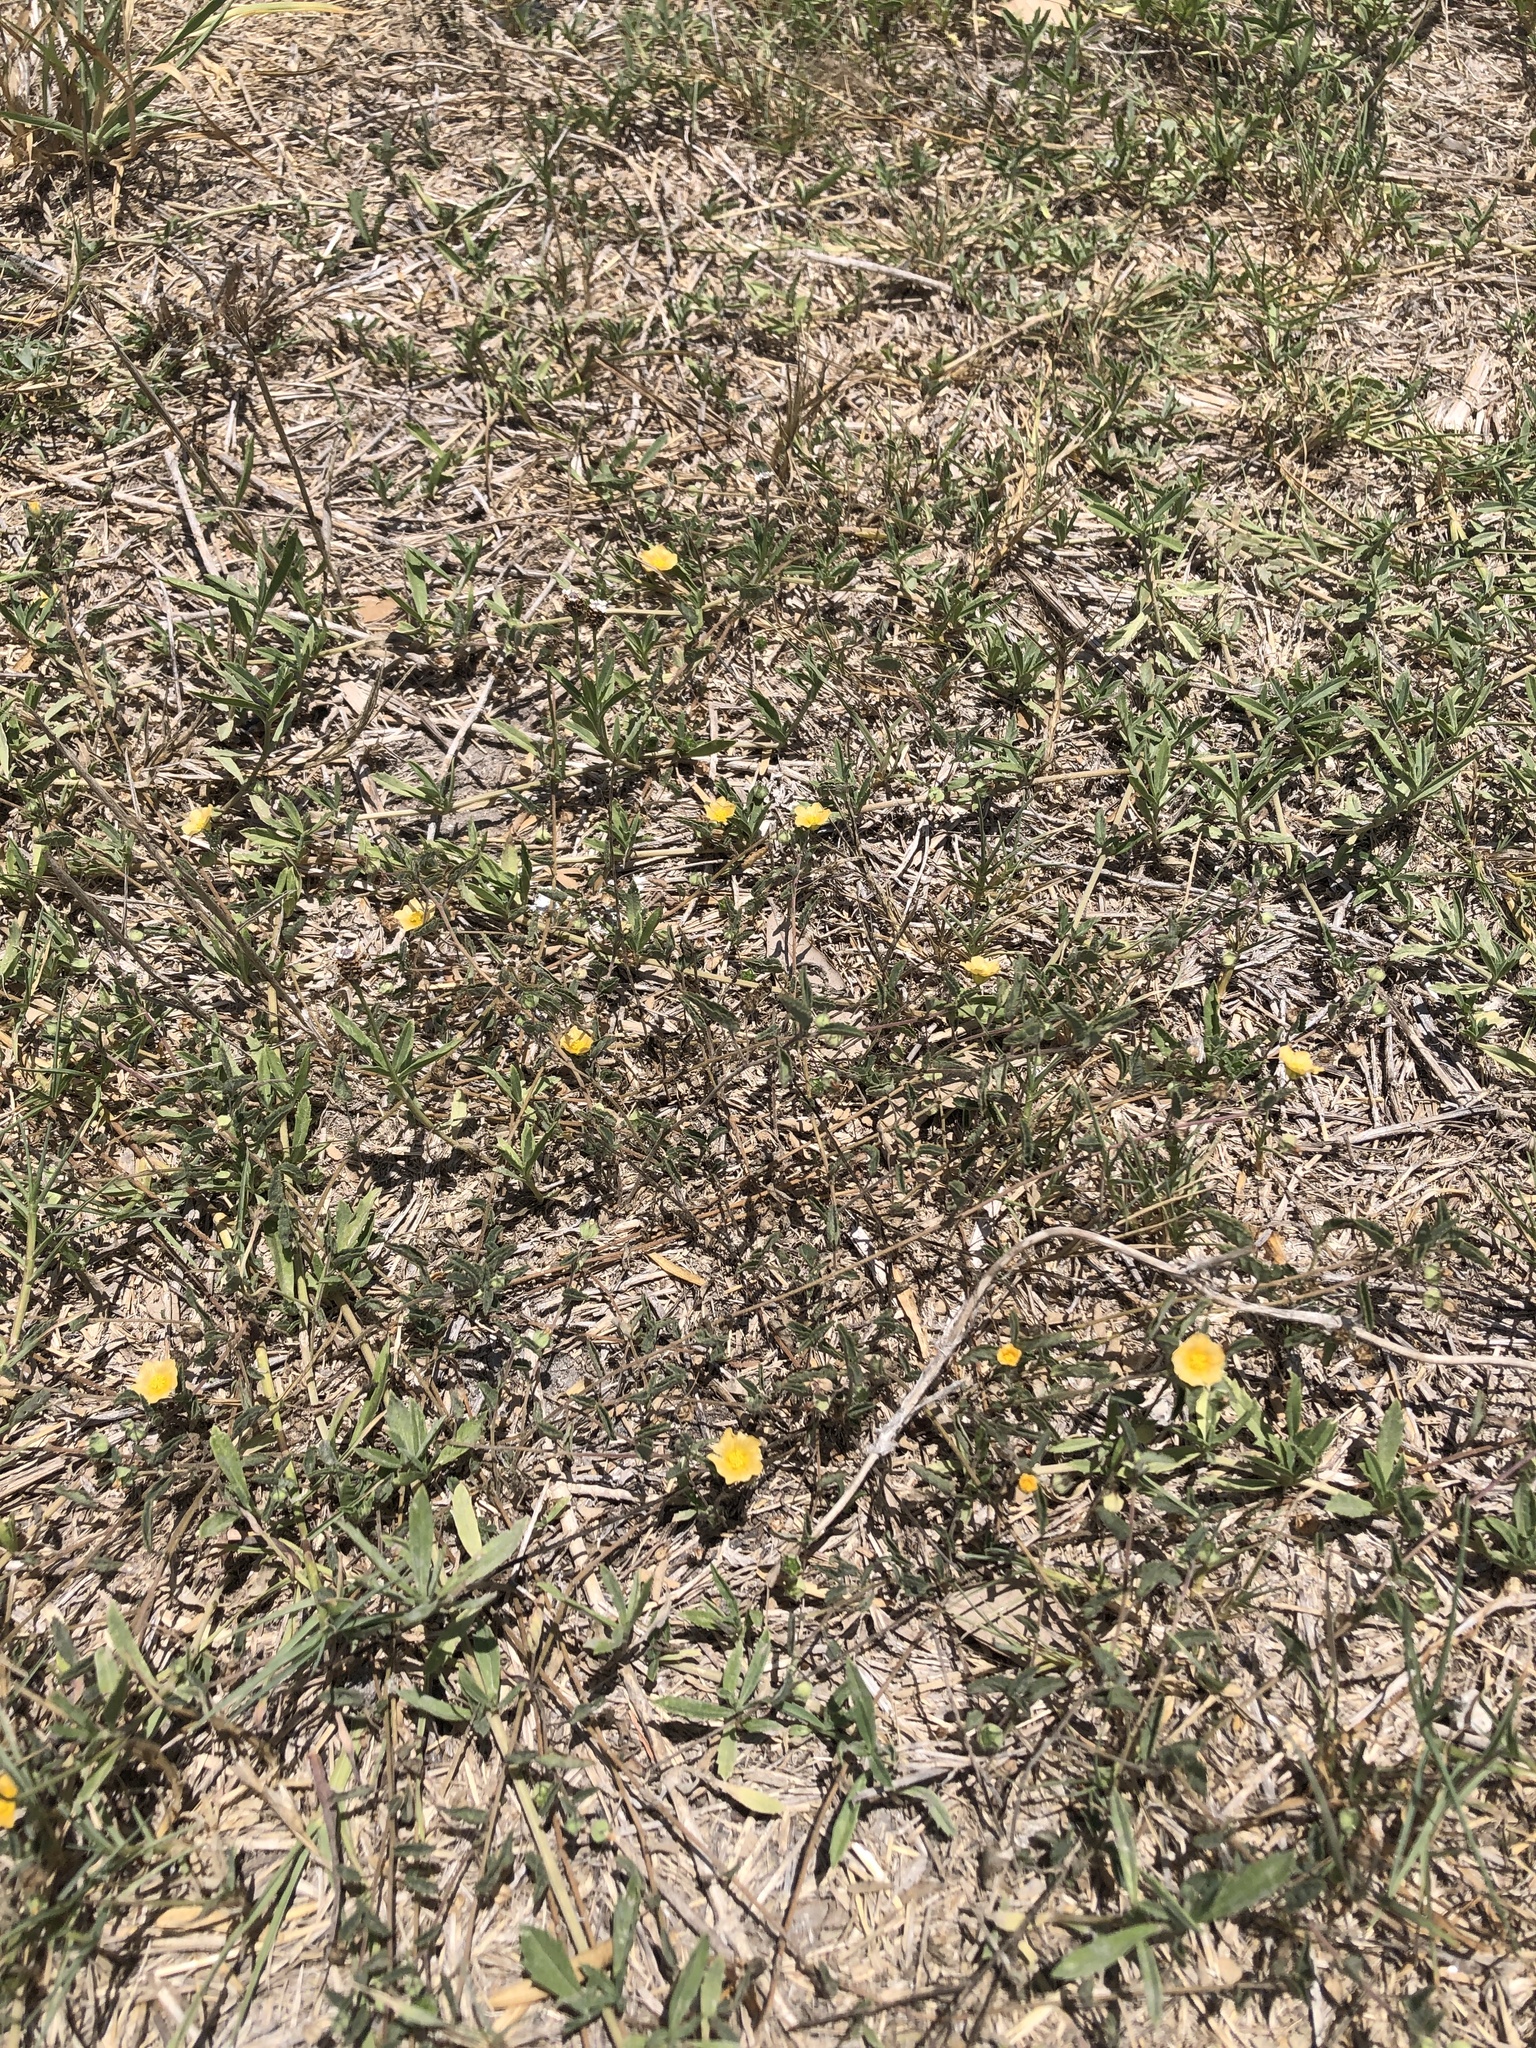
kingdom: Plantae
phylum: Tracheophyta
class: Magnoliopsida
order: Malvales
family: Malvaceae
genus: Sida
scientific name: Sida abutilifolia
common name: Spreading fanpetals
